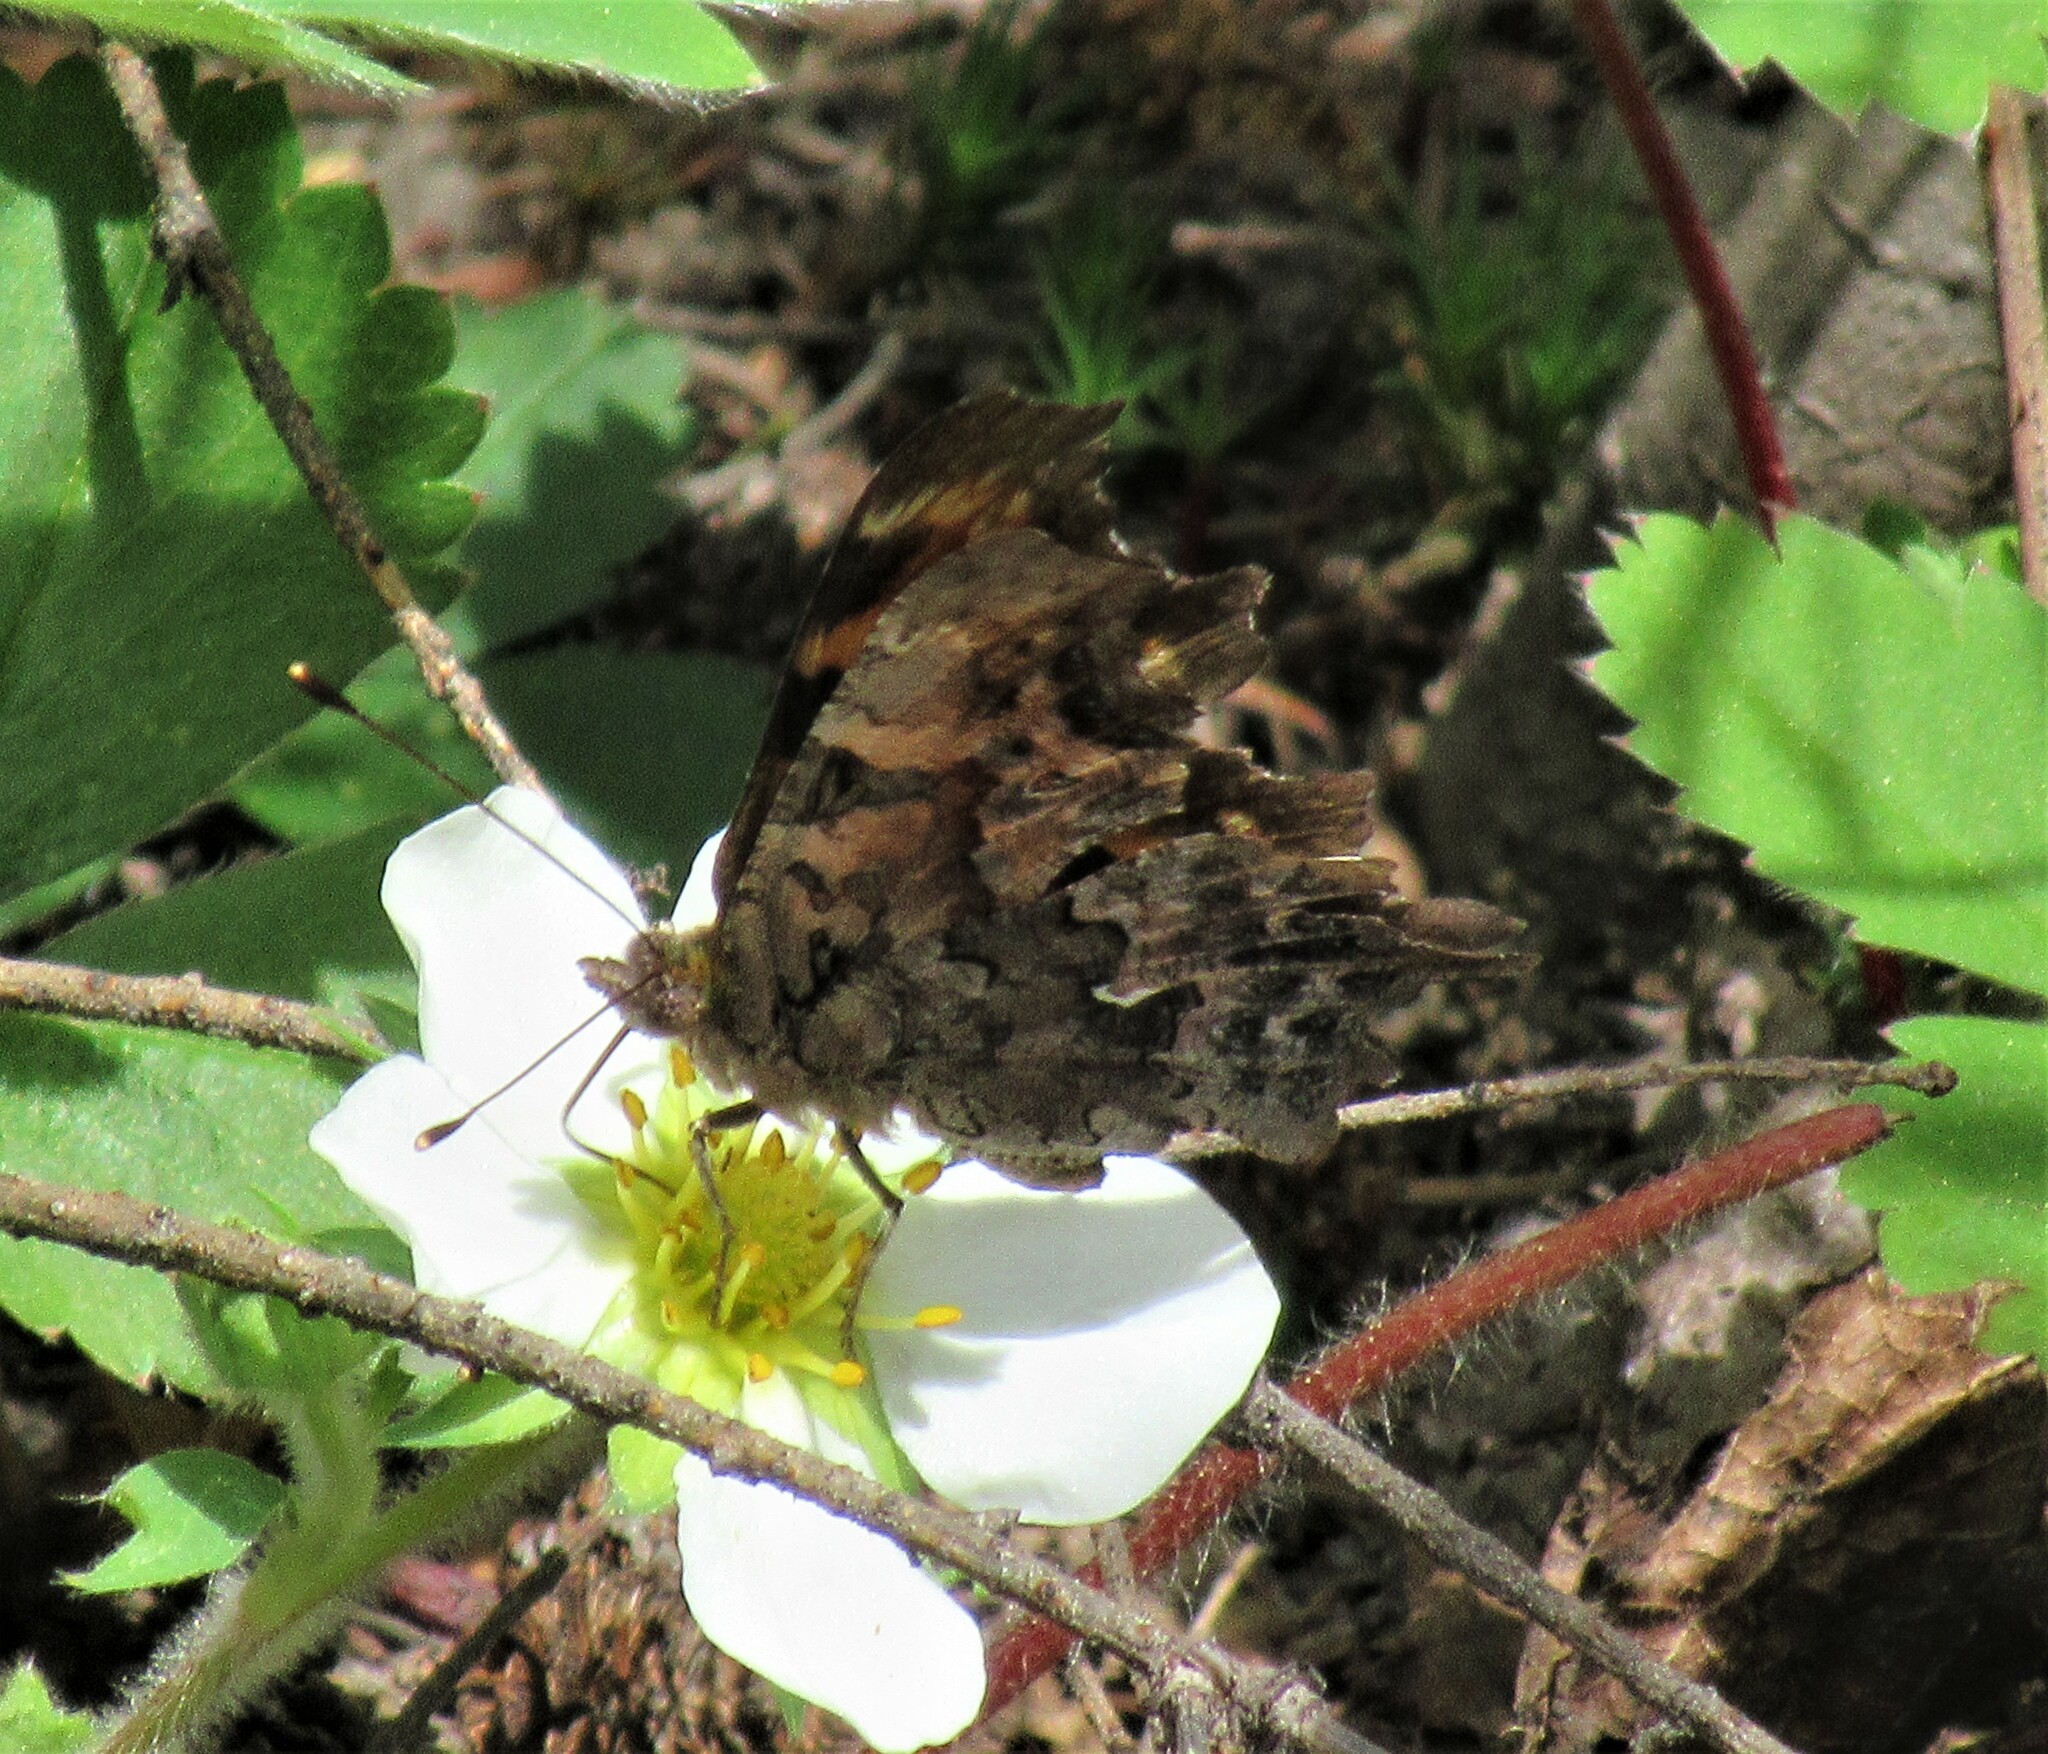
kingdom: Animalia
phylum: Arthropoda
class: Insecta
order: Lepidoptera
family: Nymphalidae
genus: Polygonia
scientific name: Polygonia faunus
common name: Green comma
